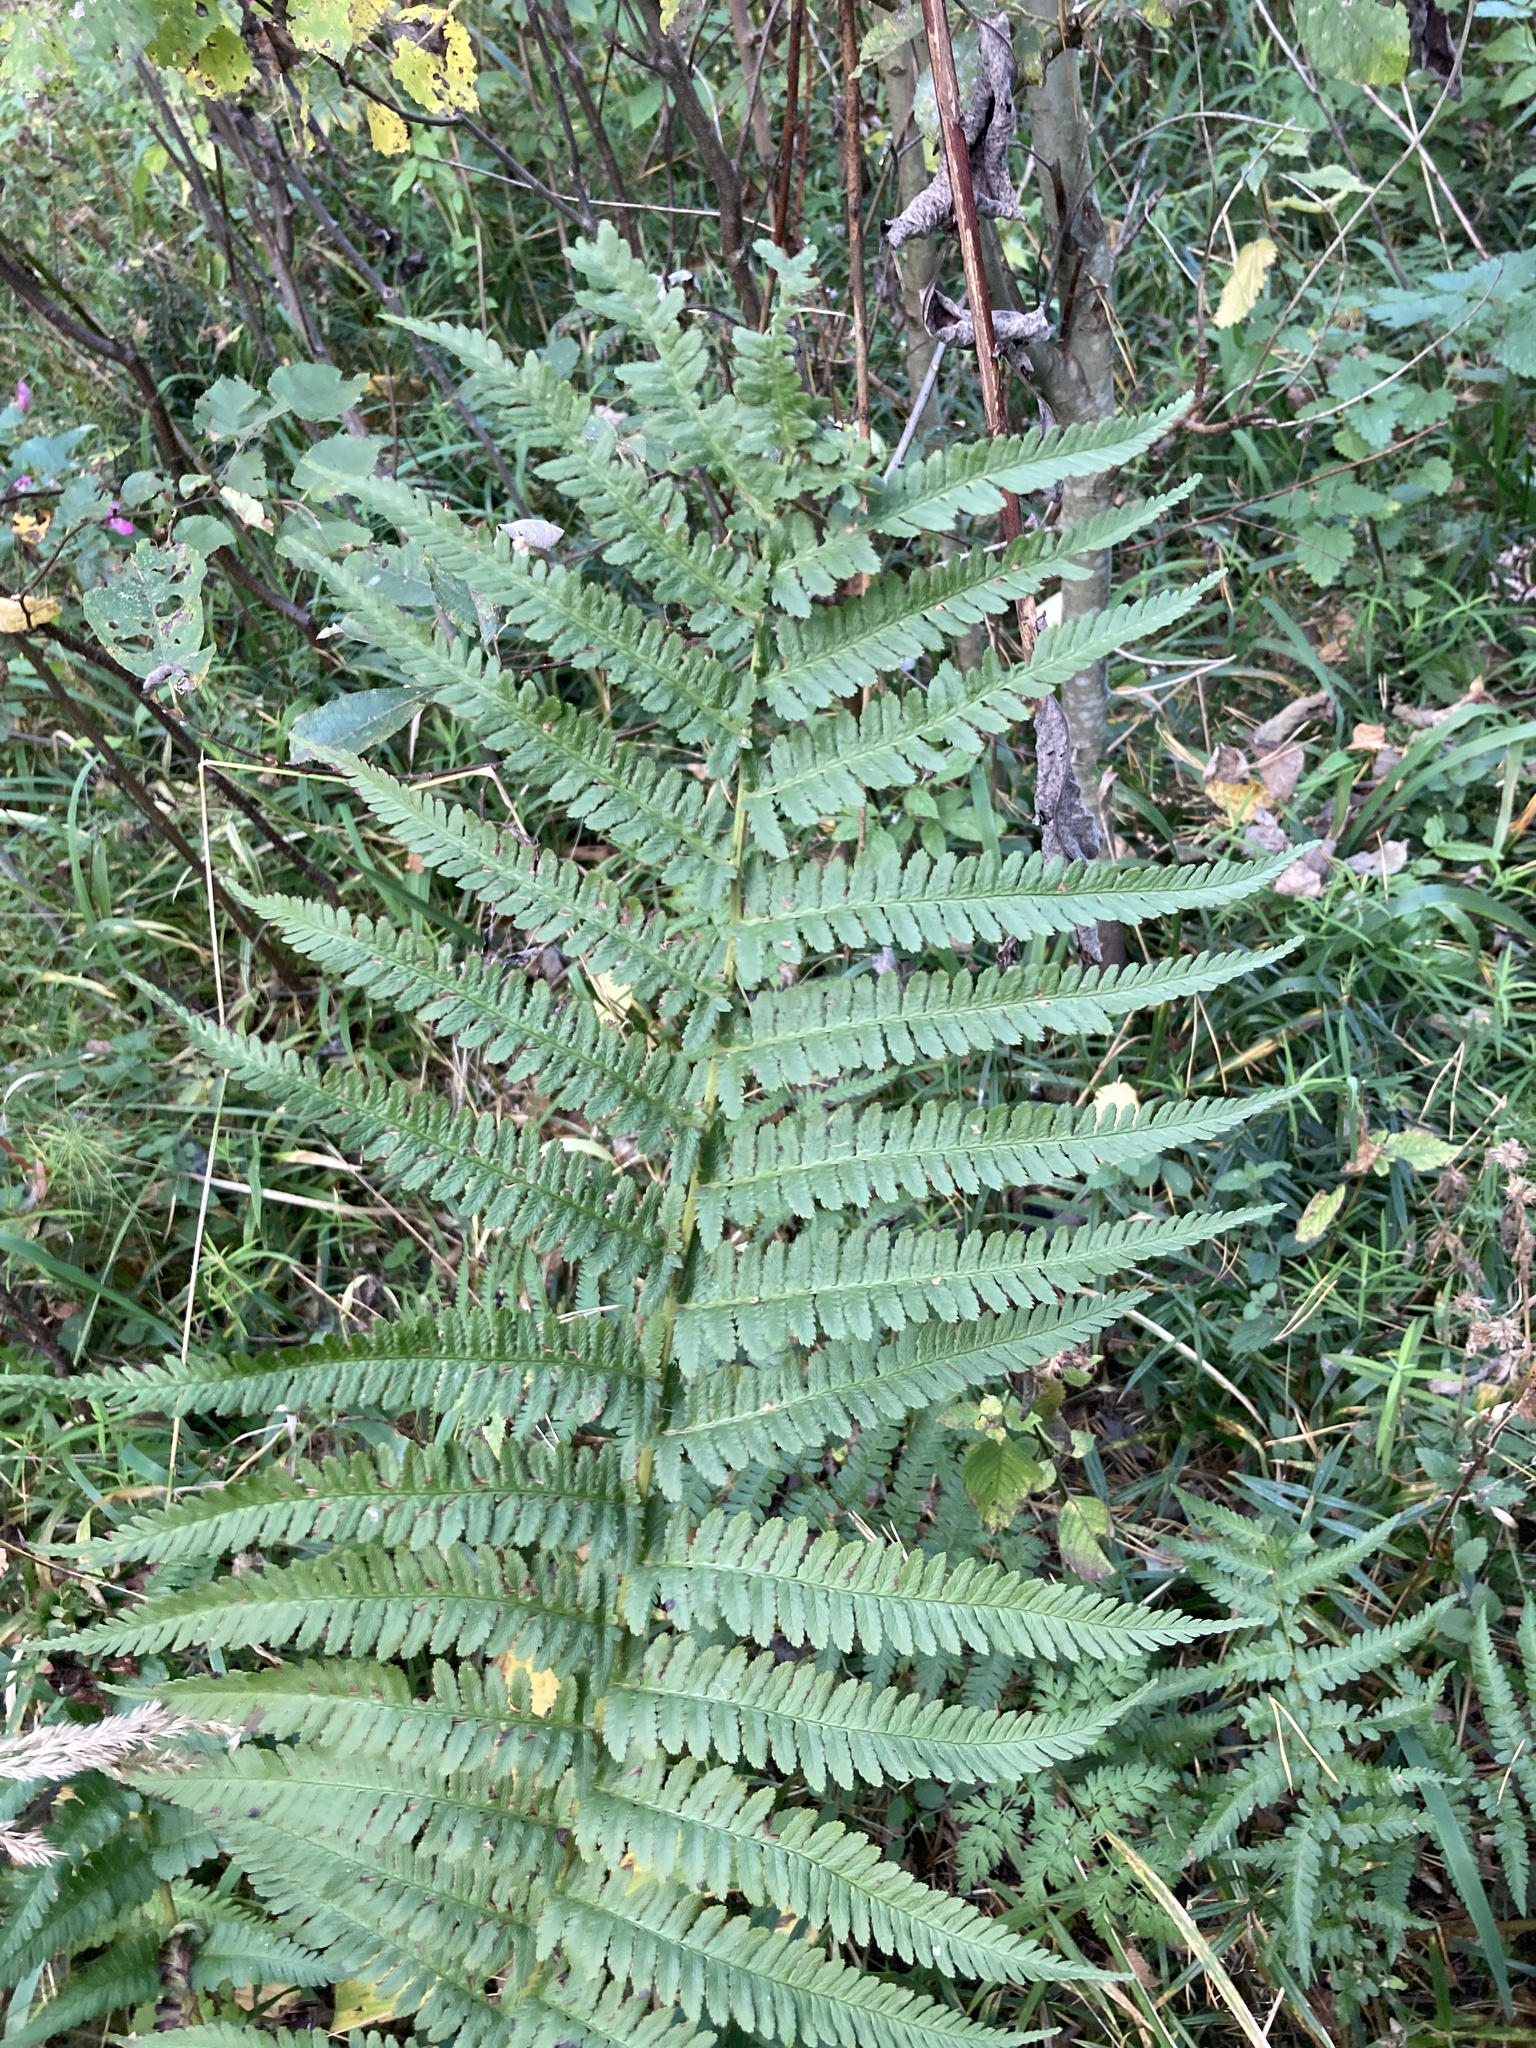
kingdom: Plantae
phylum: Tracheophyta
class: Polypodiopsida
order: Polypodiales
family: Dryopteridaceae
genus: Dryopteris
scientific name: Dryopteris filix-mas
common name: Male fern
